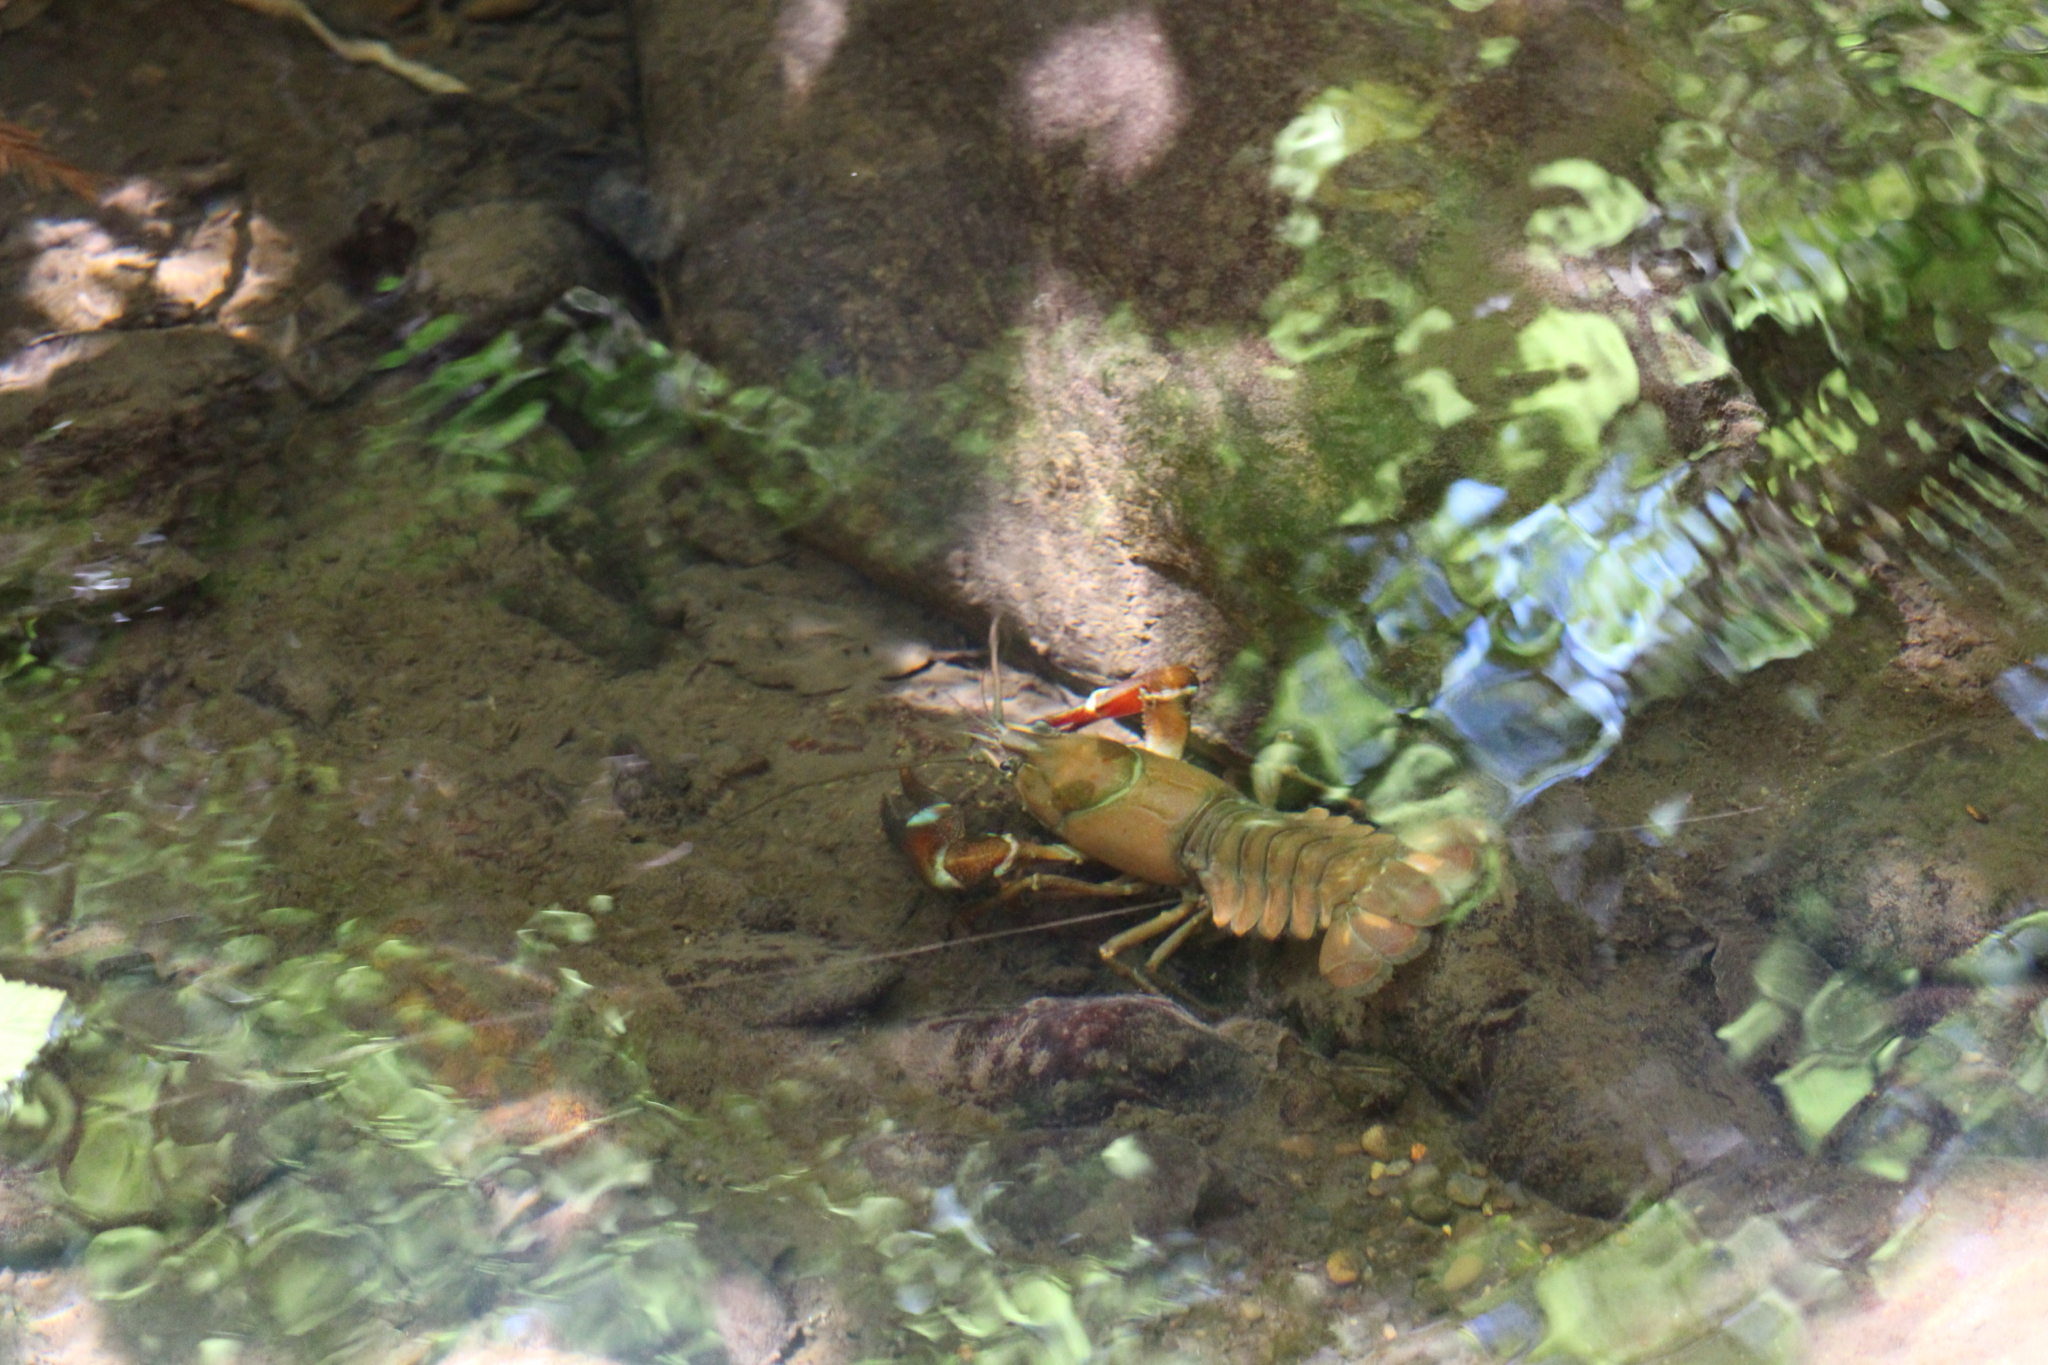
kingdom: Animalia
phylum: Arthropoda
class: Malacostraca
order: Decapoda
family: Astacidae
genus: Pacifastacus
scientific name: Pacifastacus leniusculus
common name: Signal crayfish
